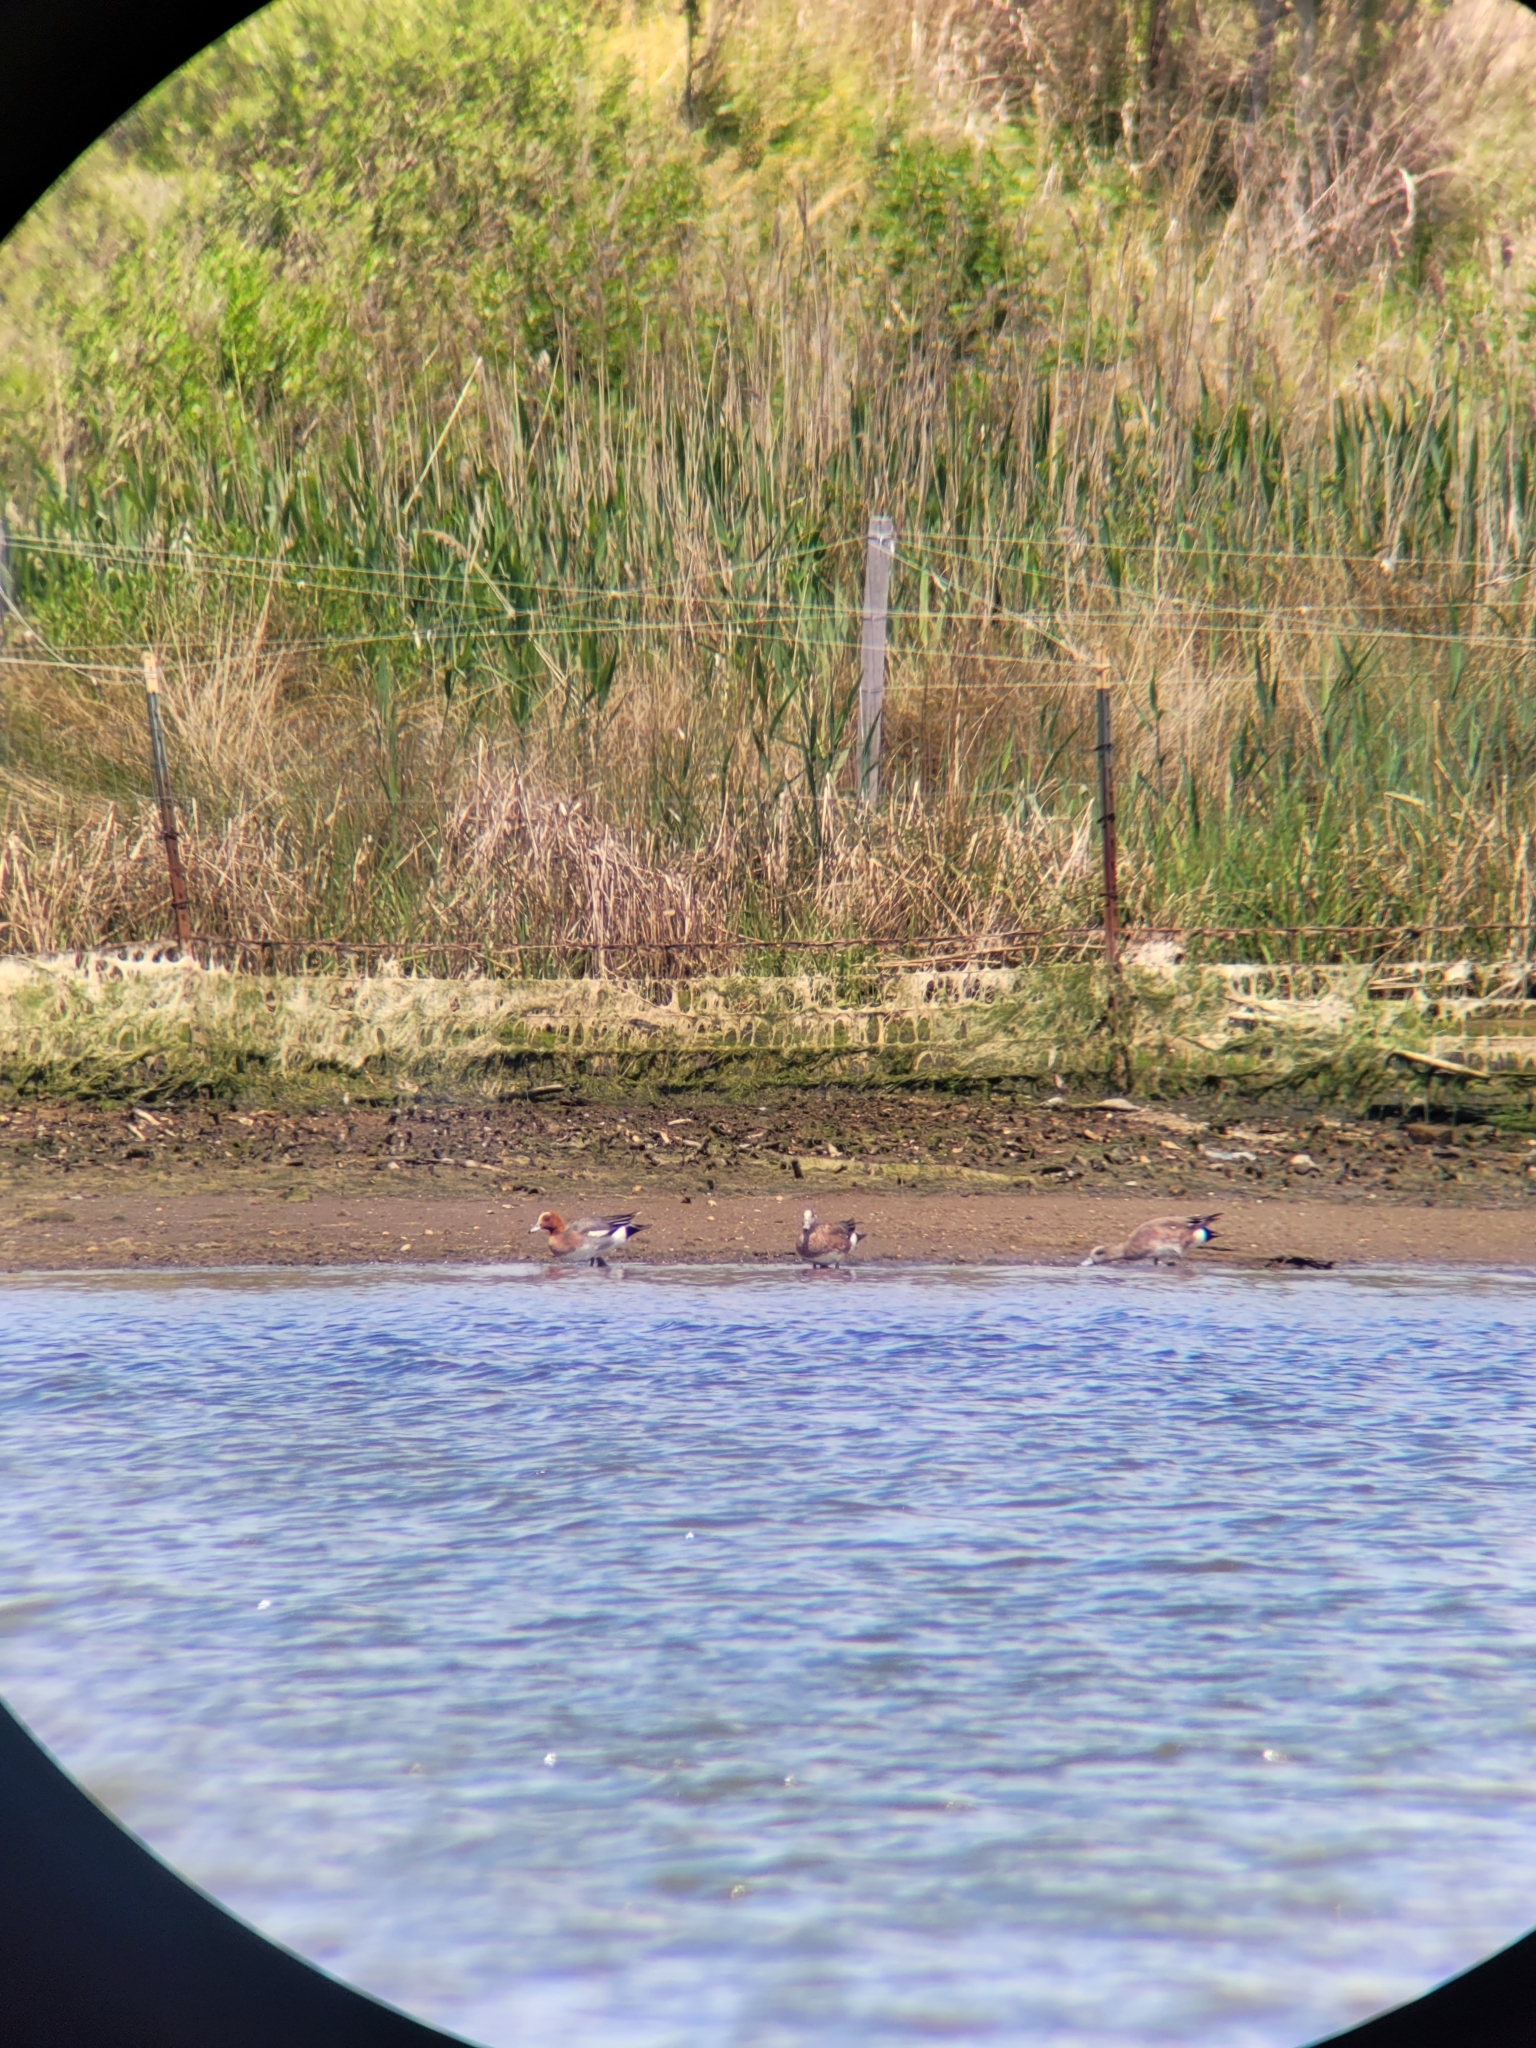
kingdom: Animalia
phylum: Chordata
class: Aves
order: Anseriformes
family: Anatidae
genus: Mareca
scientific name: Mareca penelope
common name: Eurasian wigeon
